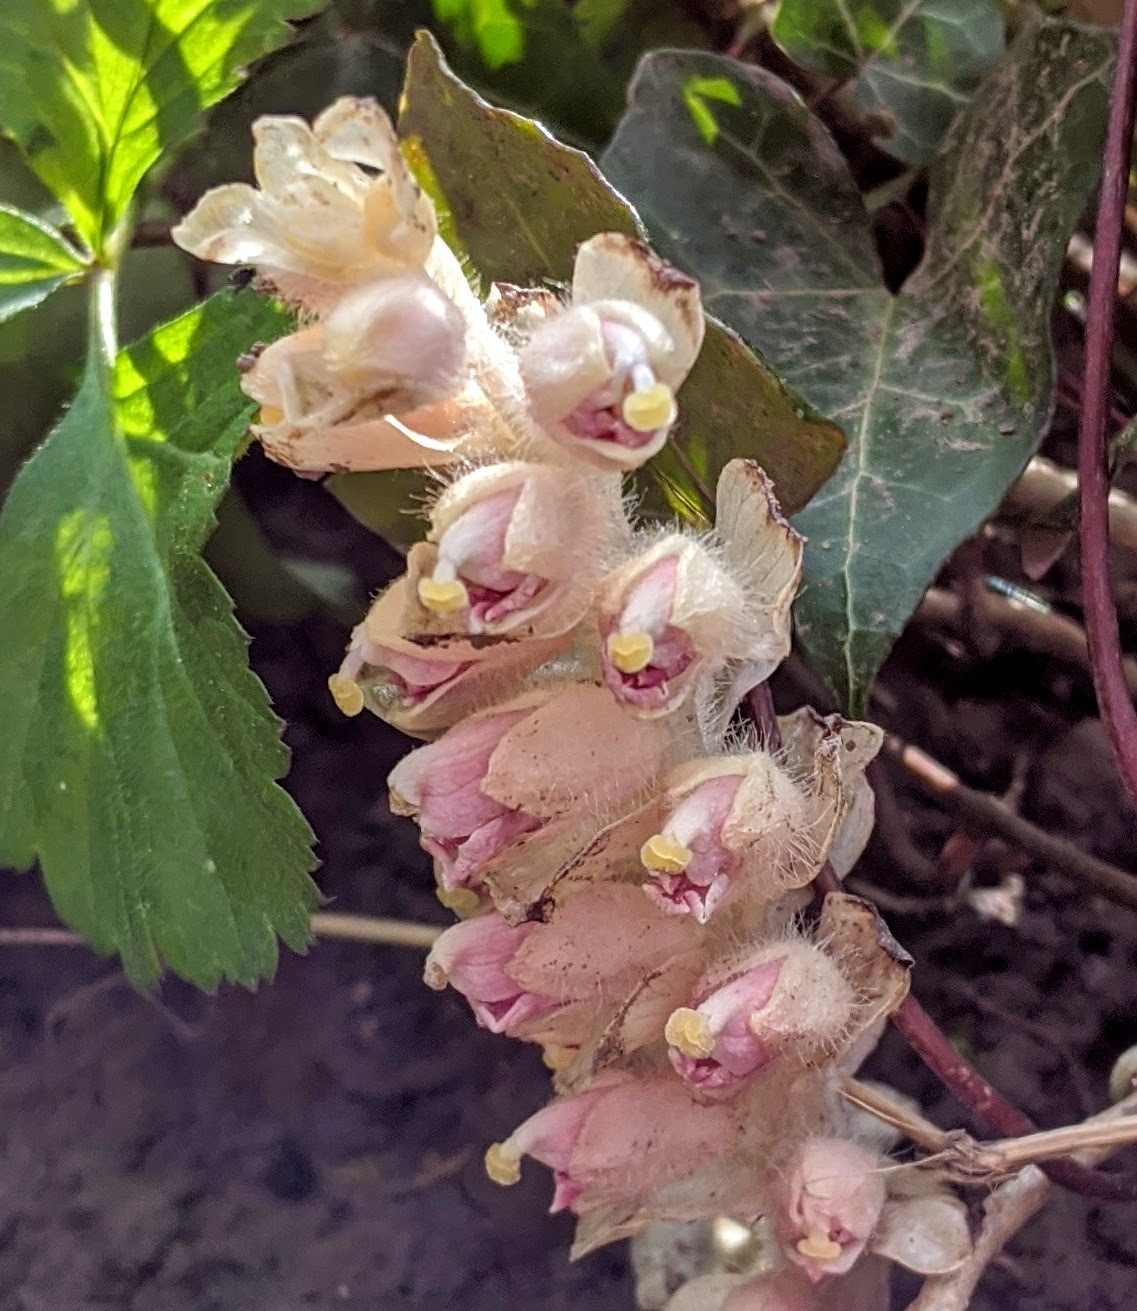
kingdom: Plantae
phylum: Tracheophyta
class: Magnoliopsida
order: Lamiales
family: Orobanchaceae
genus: Lathraea
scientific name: Lathraea squamaria
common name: Toothwort
